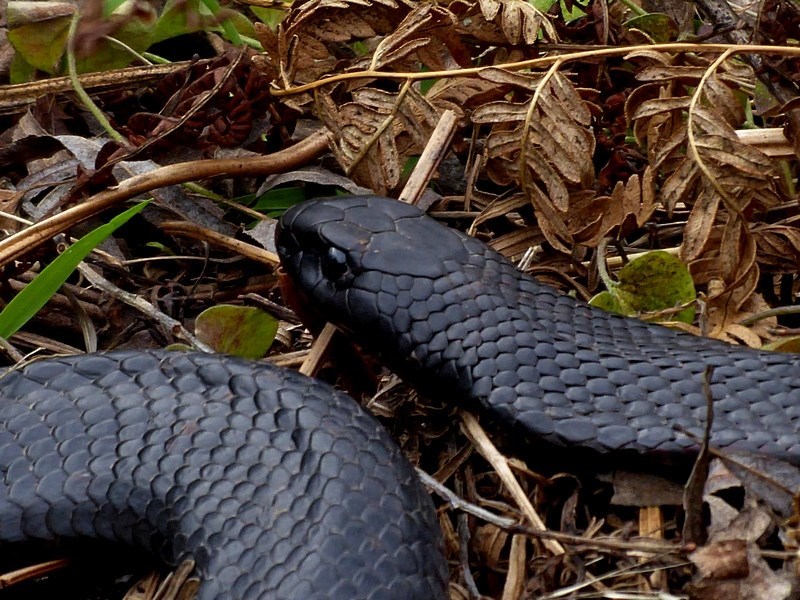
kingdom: Animalia
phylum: Chordata
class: Squamata
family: Elapidae
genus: Pseudechis
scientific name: Pseudechis porphyriacus
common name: Australian black snake
